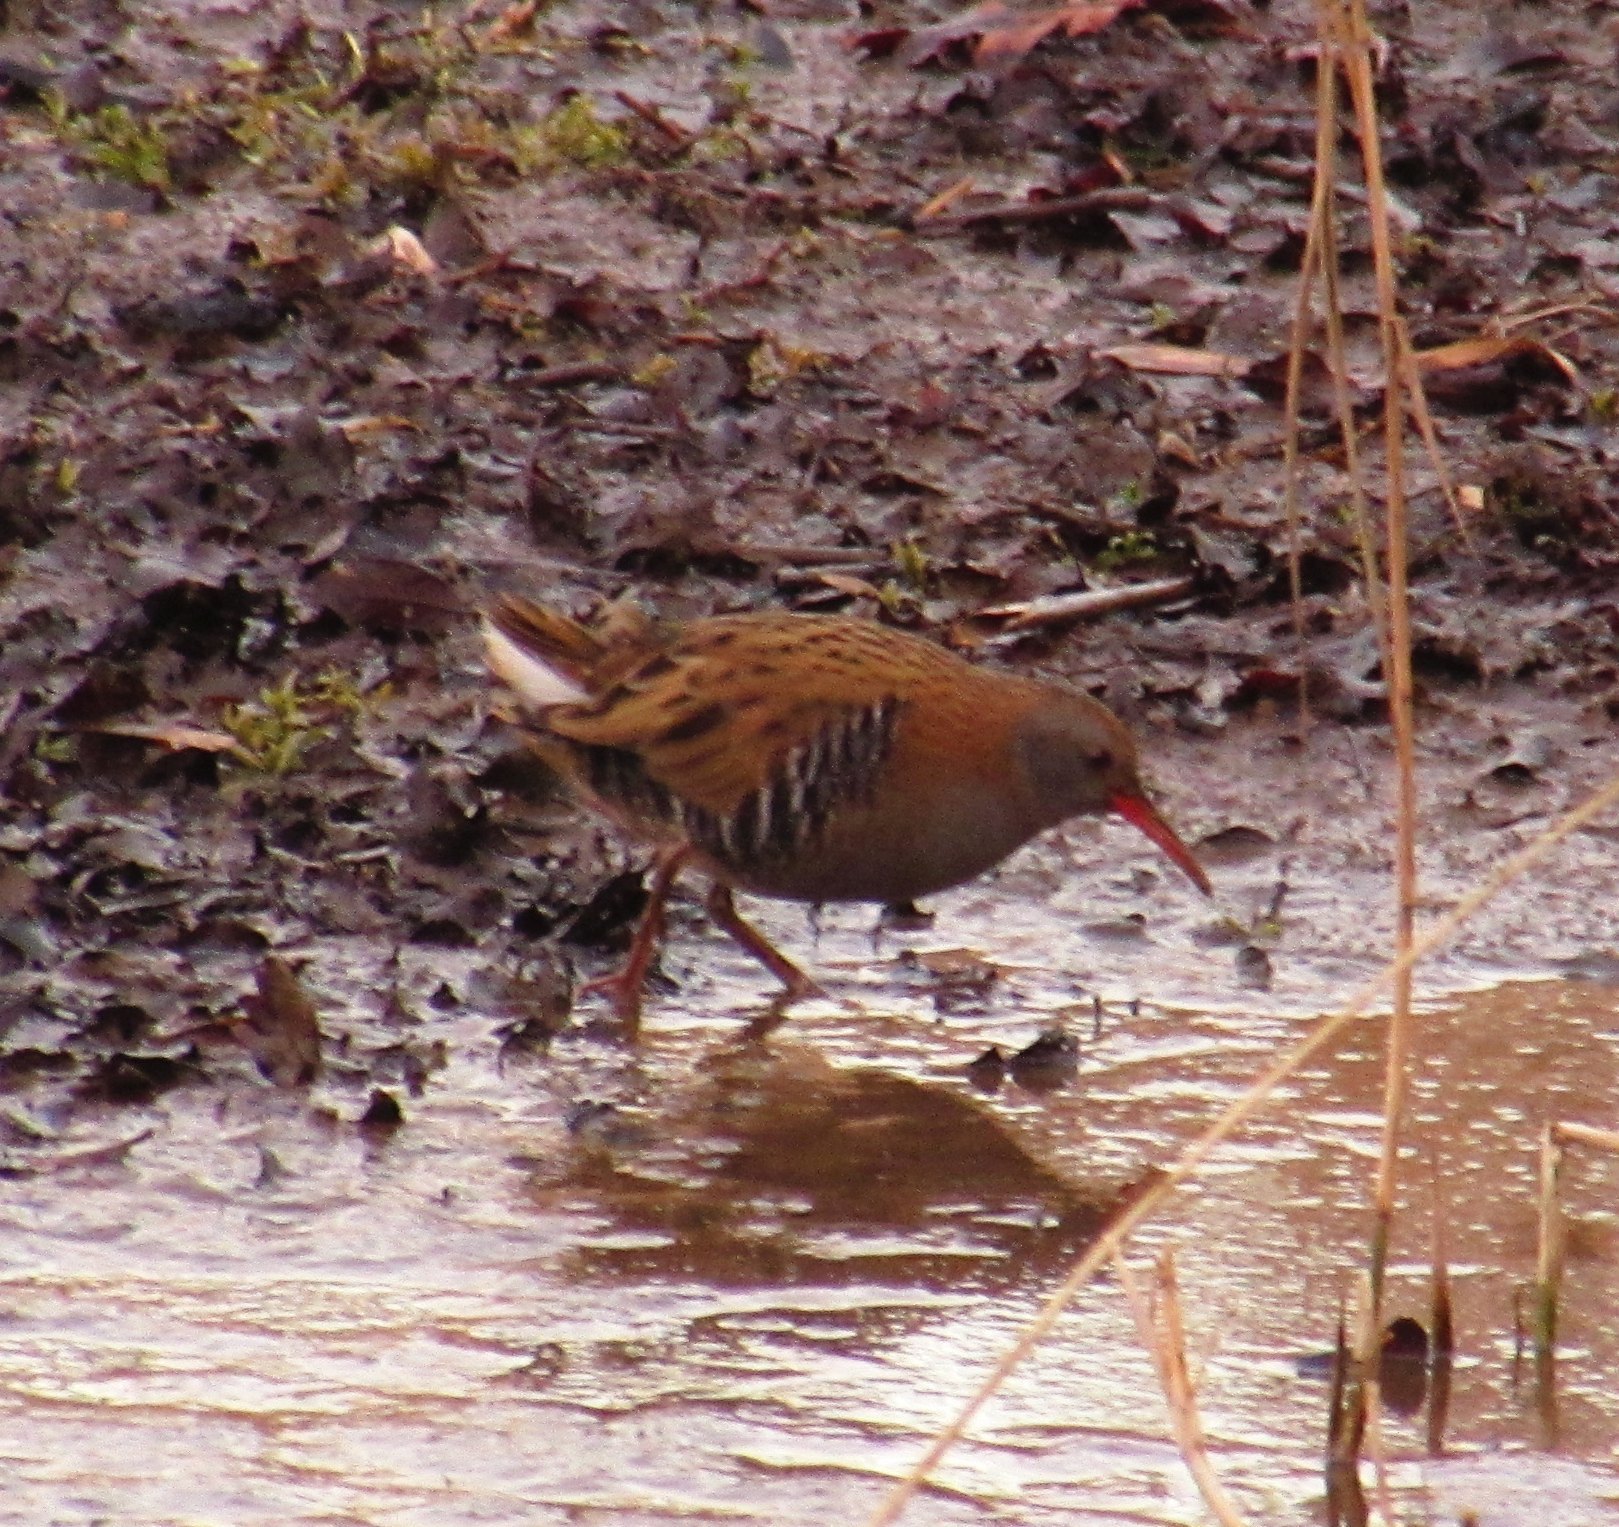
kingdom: Animalia
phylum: Chordata
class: Aves
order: Gruiformes
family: Rallidae
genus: Rallus
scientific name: Rallus aquaticus
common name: Water rail
